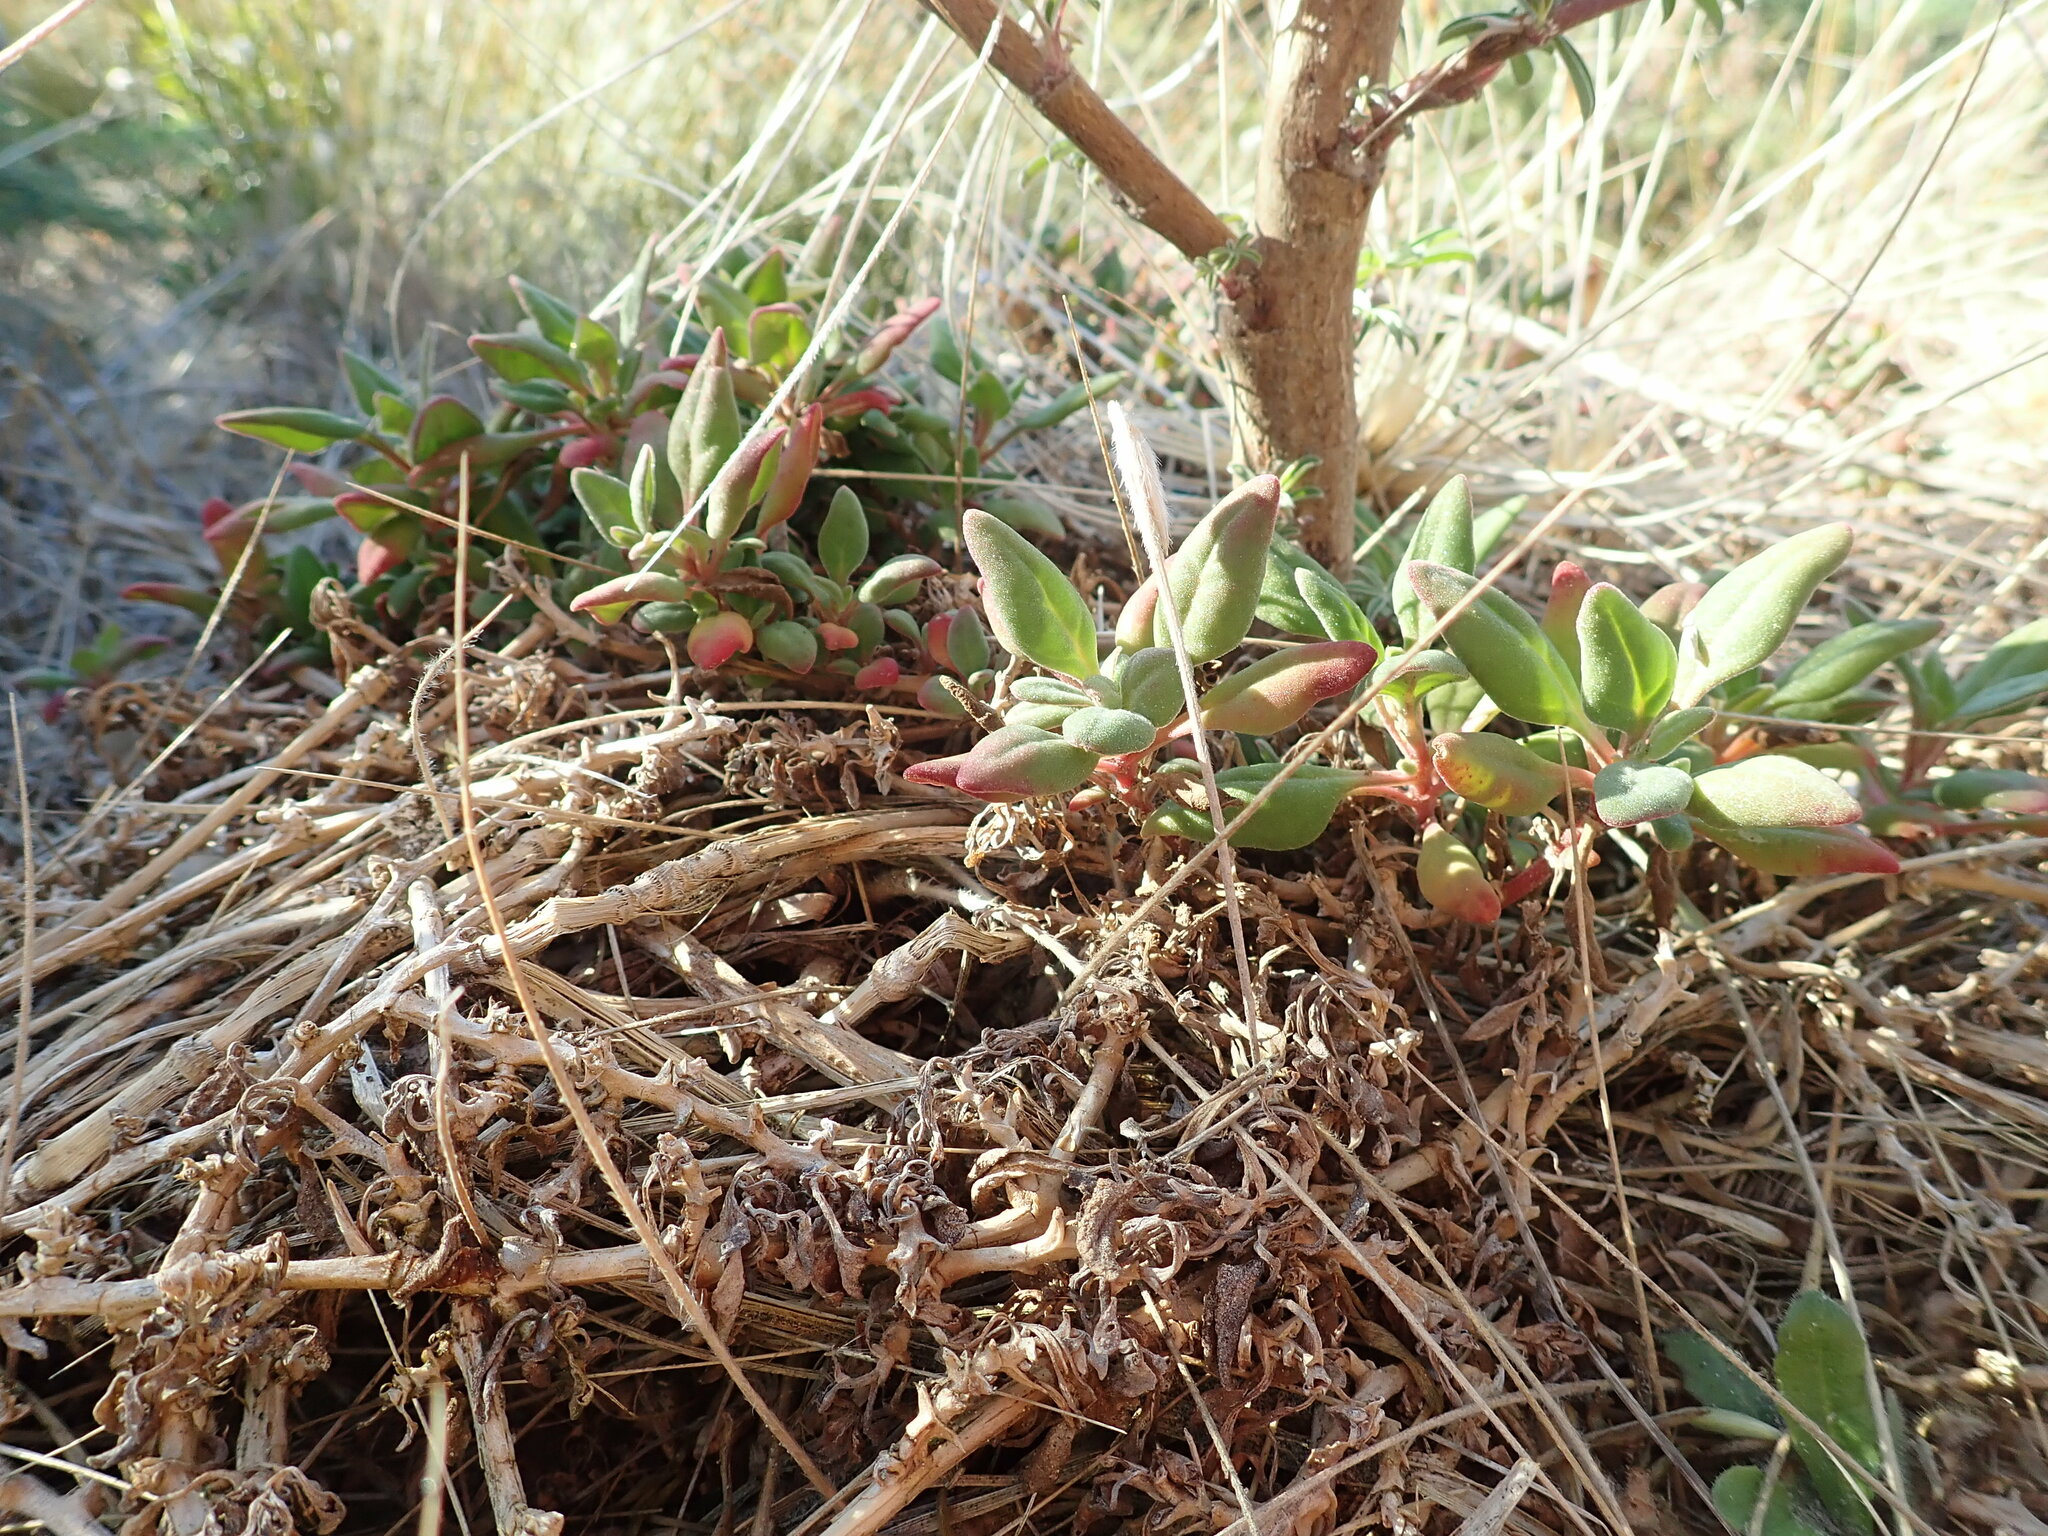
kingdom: Plantae
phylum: Tracheophyta
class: Magnoliopsida
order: Caryophyllales
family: Aizoaceae
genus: Tetragonia
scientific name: Tetragonia implexicoma
